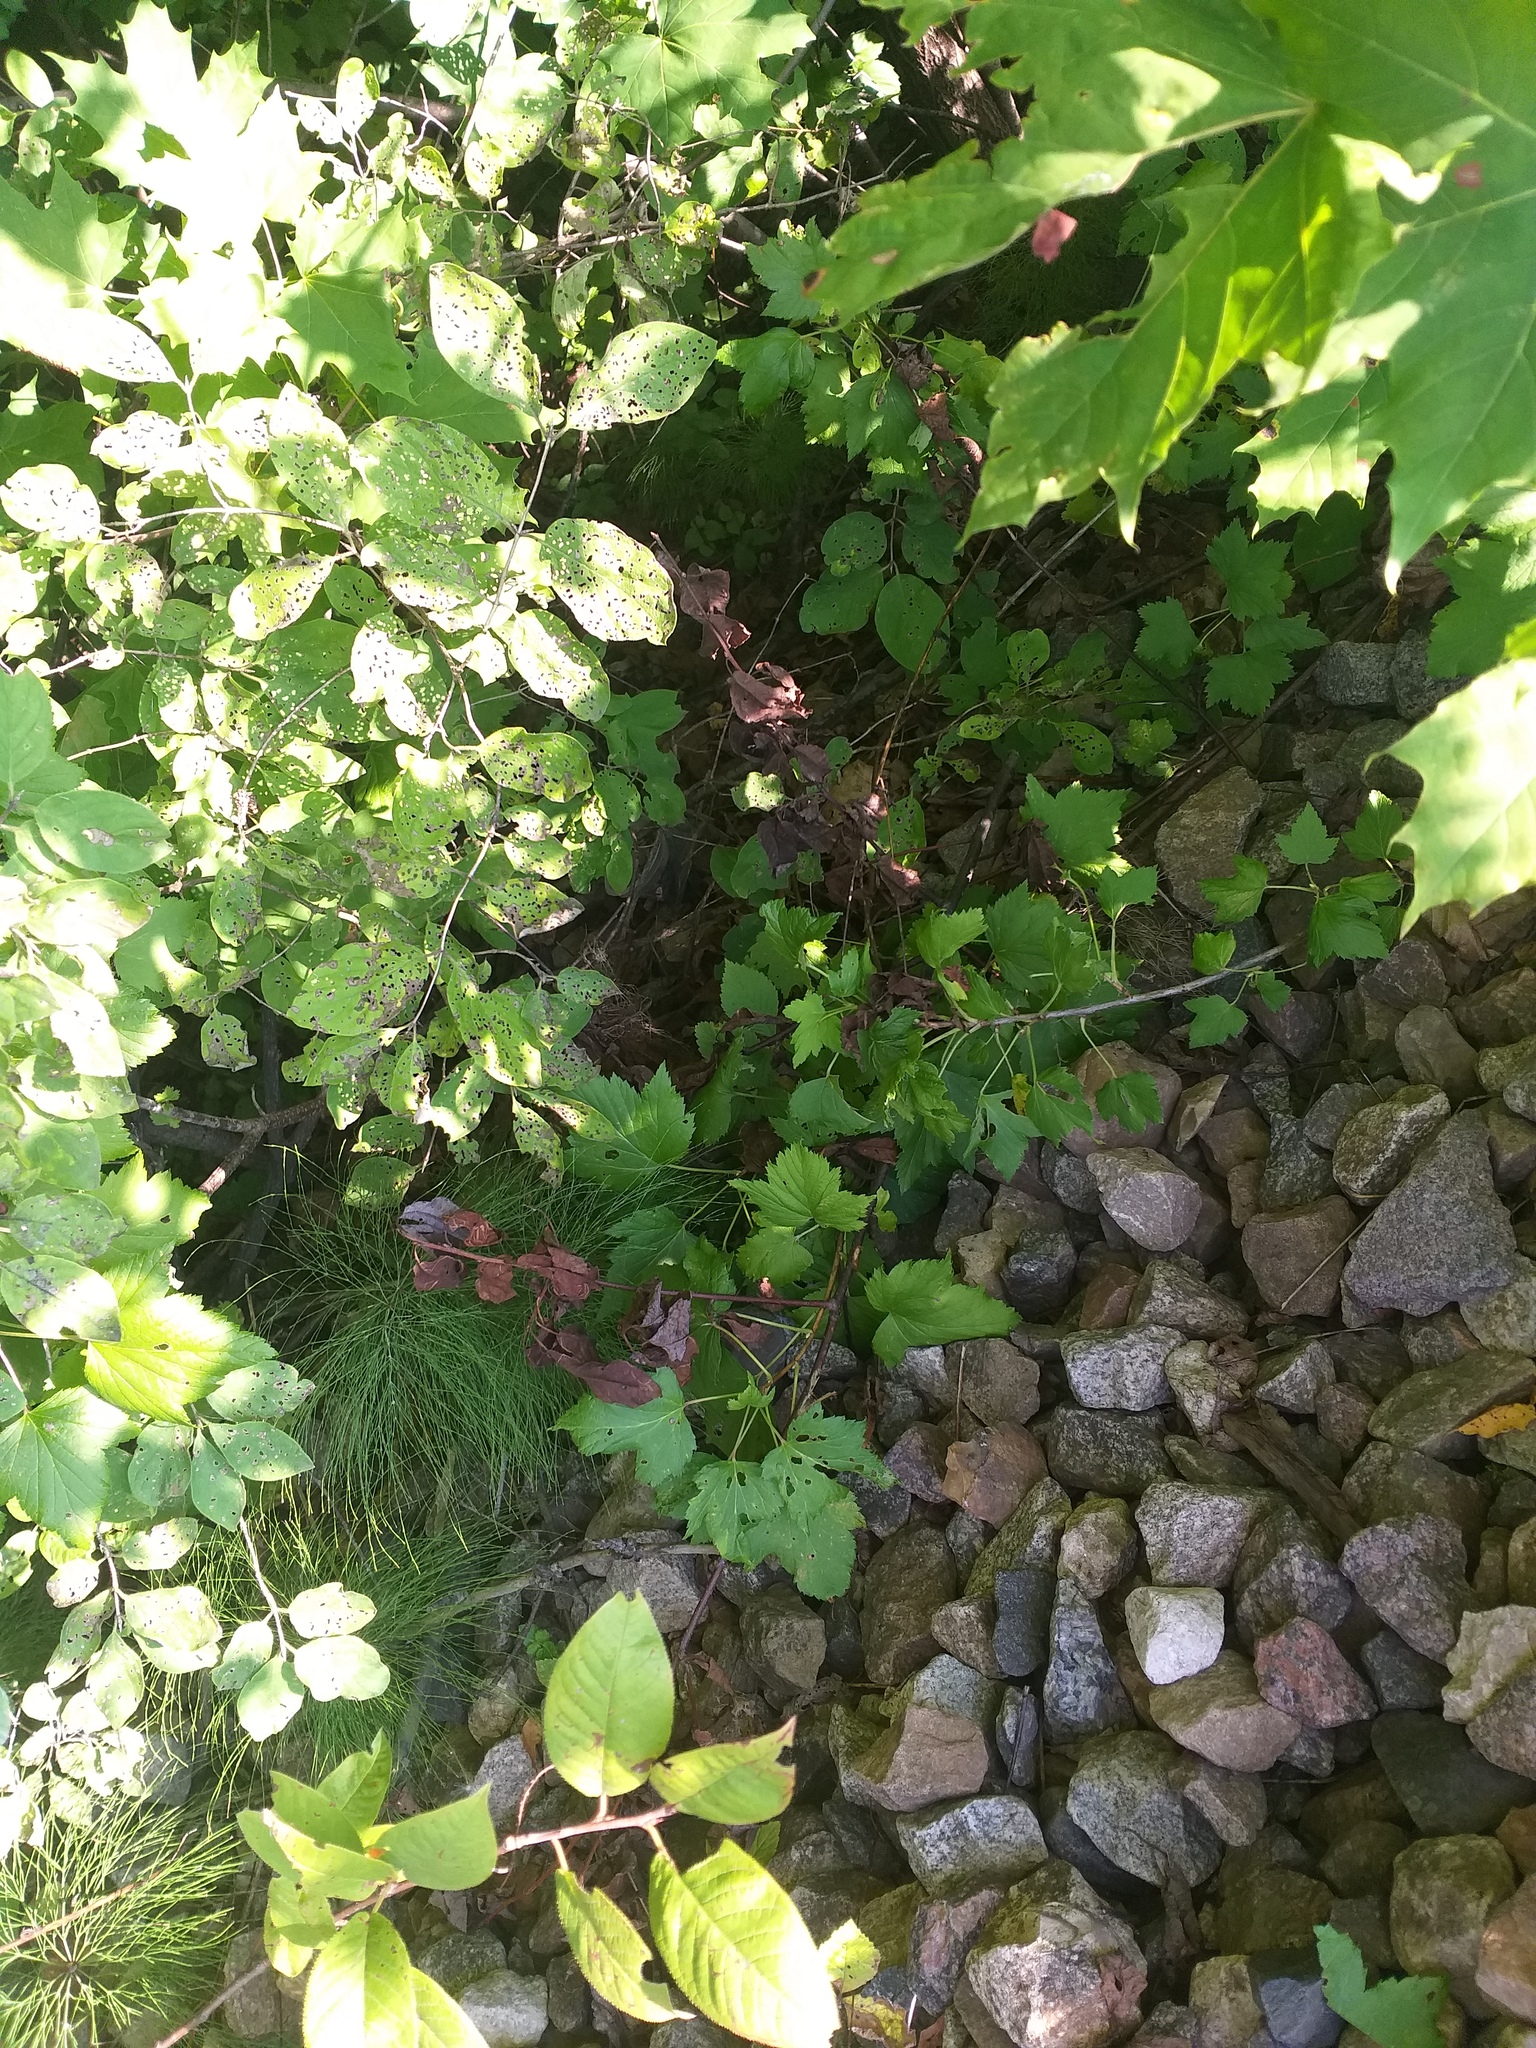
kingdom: Plantae
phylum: Tracheophyta
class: Magnoliopsida
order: Saxifragales
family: Grossulariaceae
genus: Ribes
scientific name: Ribes nigrum
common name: Black currant
